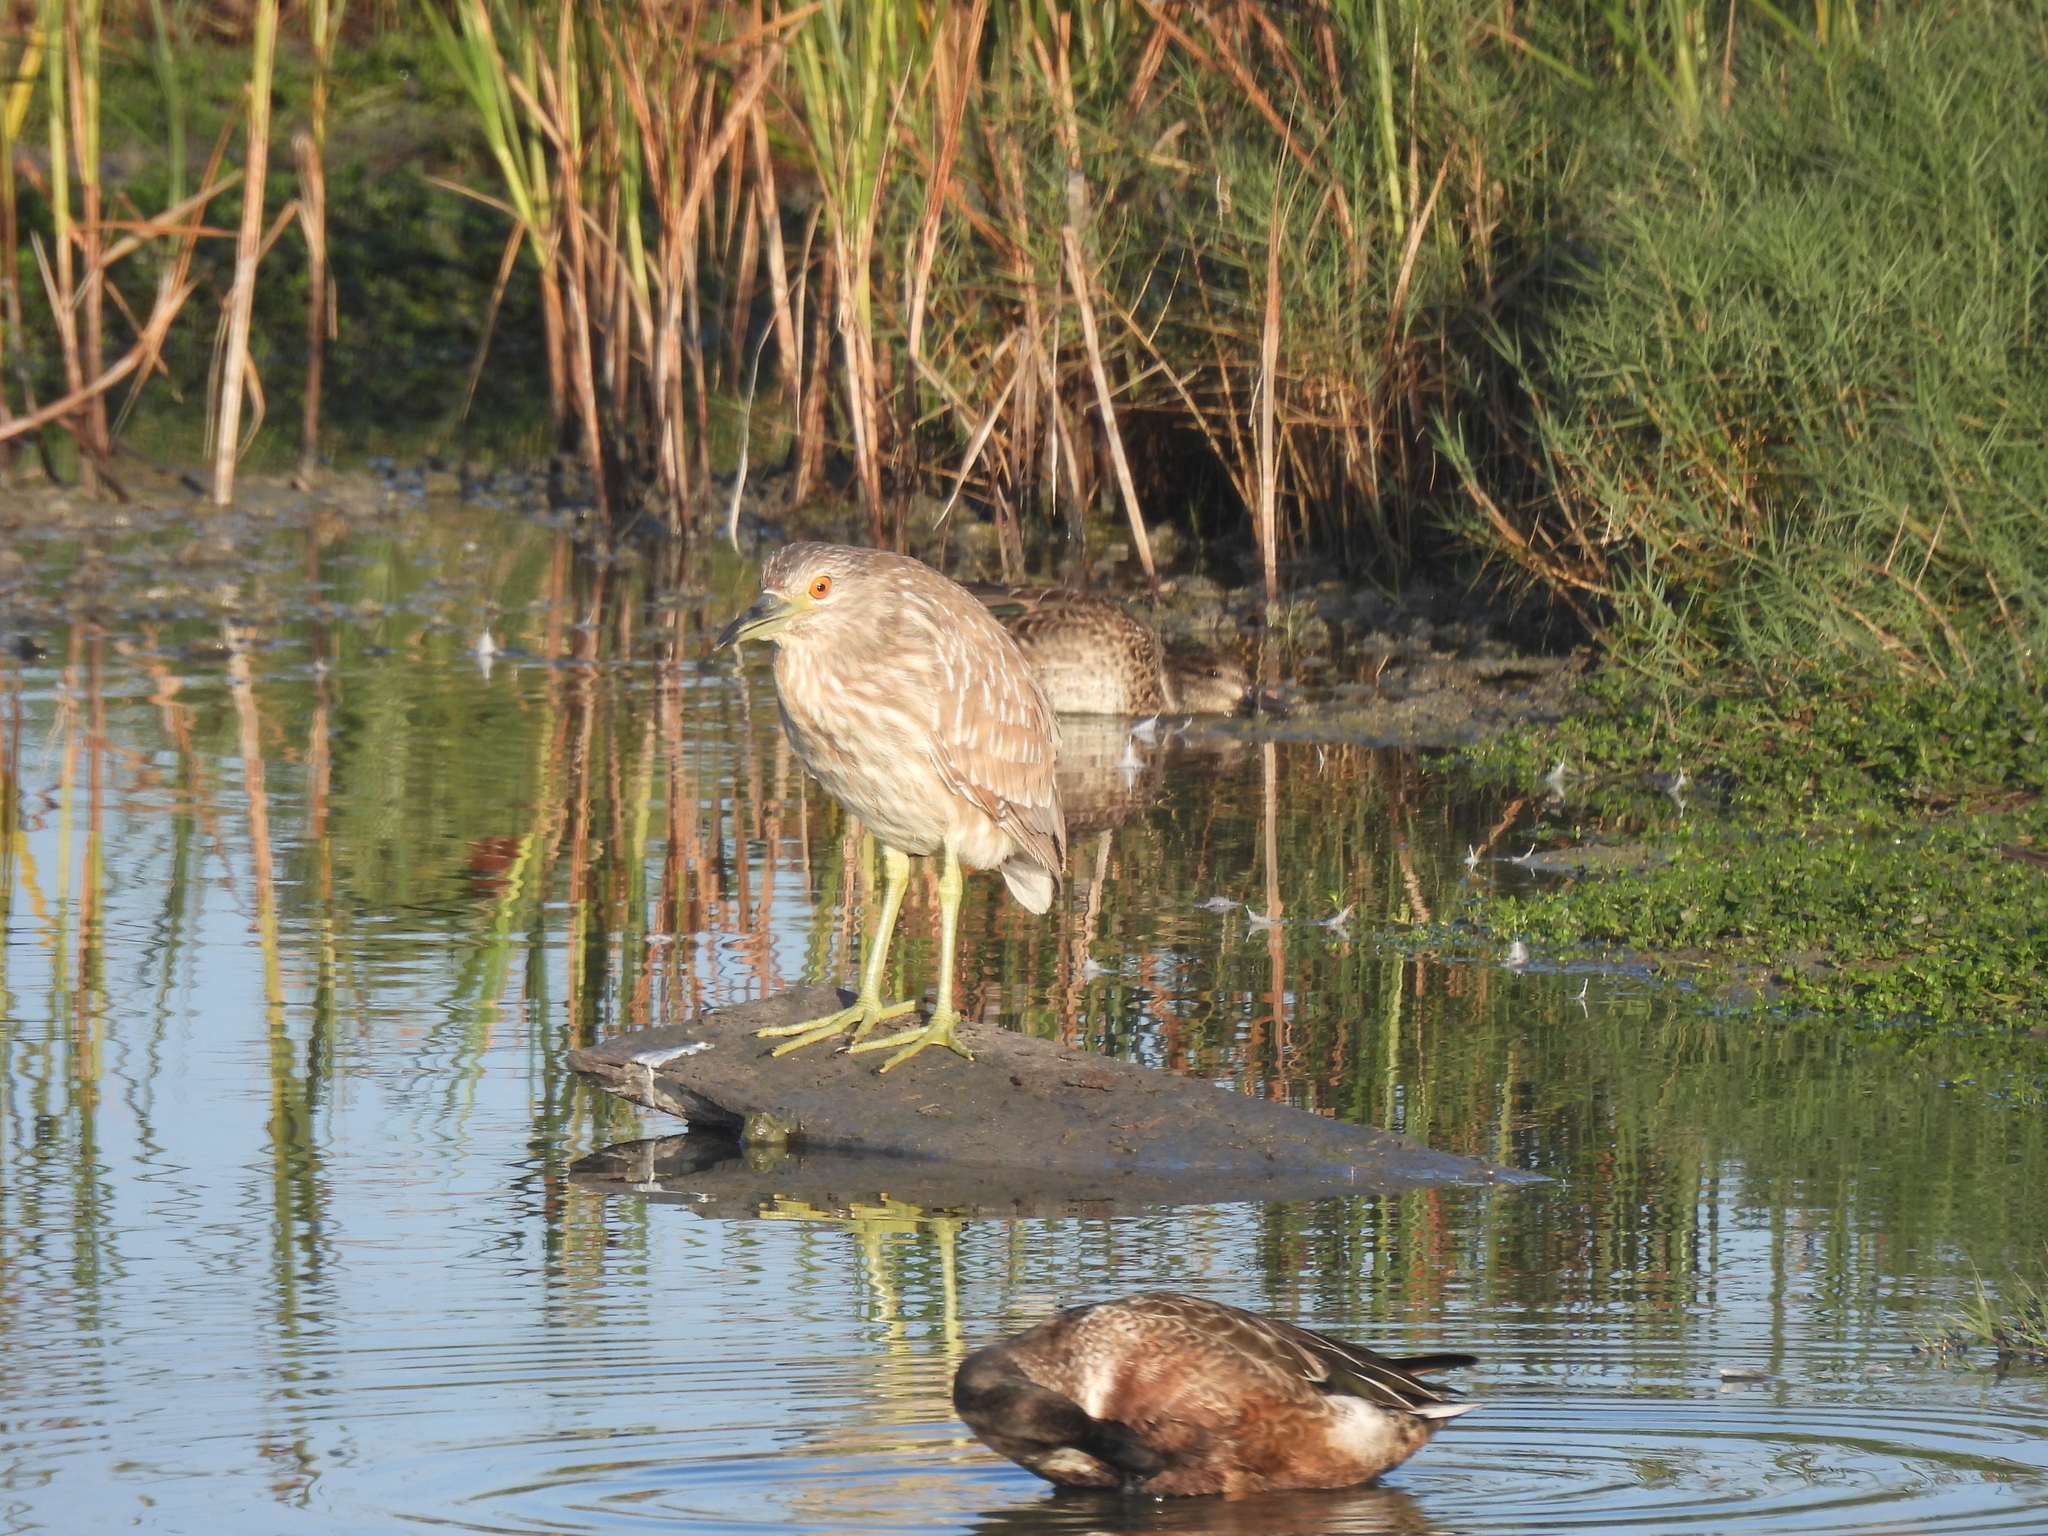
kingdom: Animalia
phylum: Chordata
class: Aves
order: Pelecaniformes
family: Ardeidae
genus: Nycticorax
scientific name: Nycticorax nycticorax
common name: Black-crowned night heron
